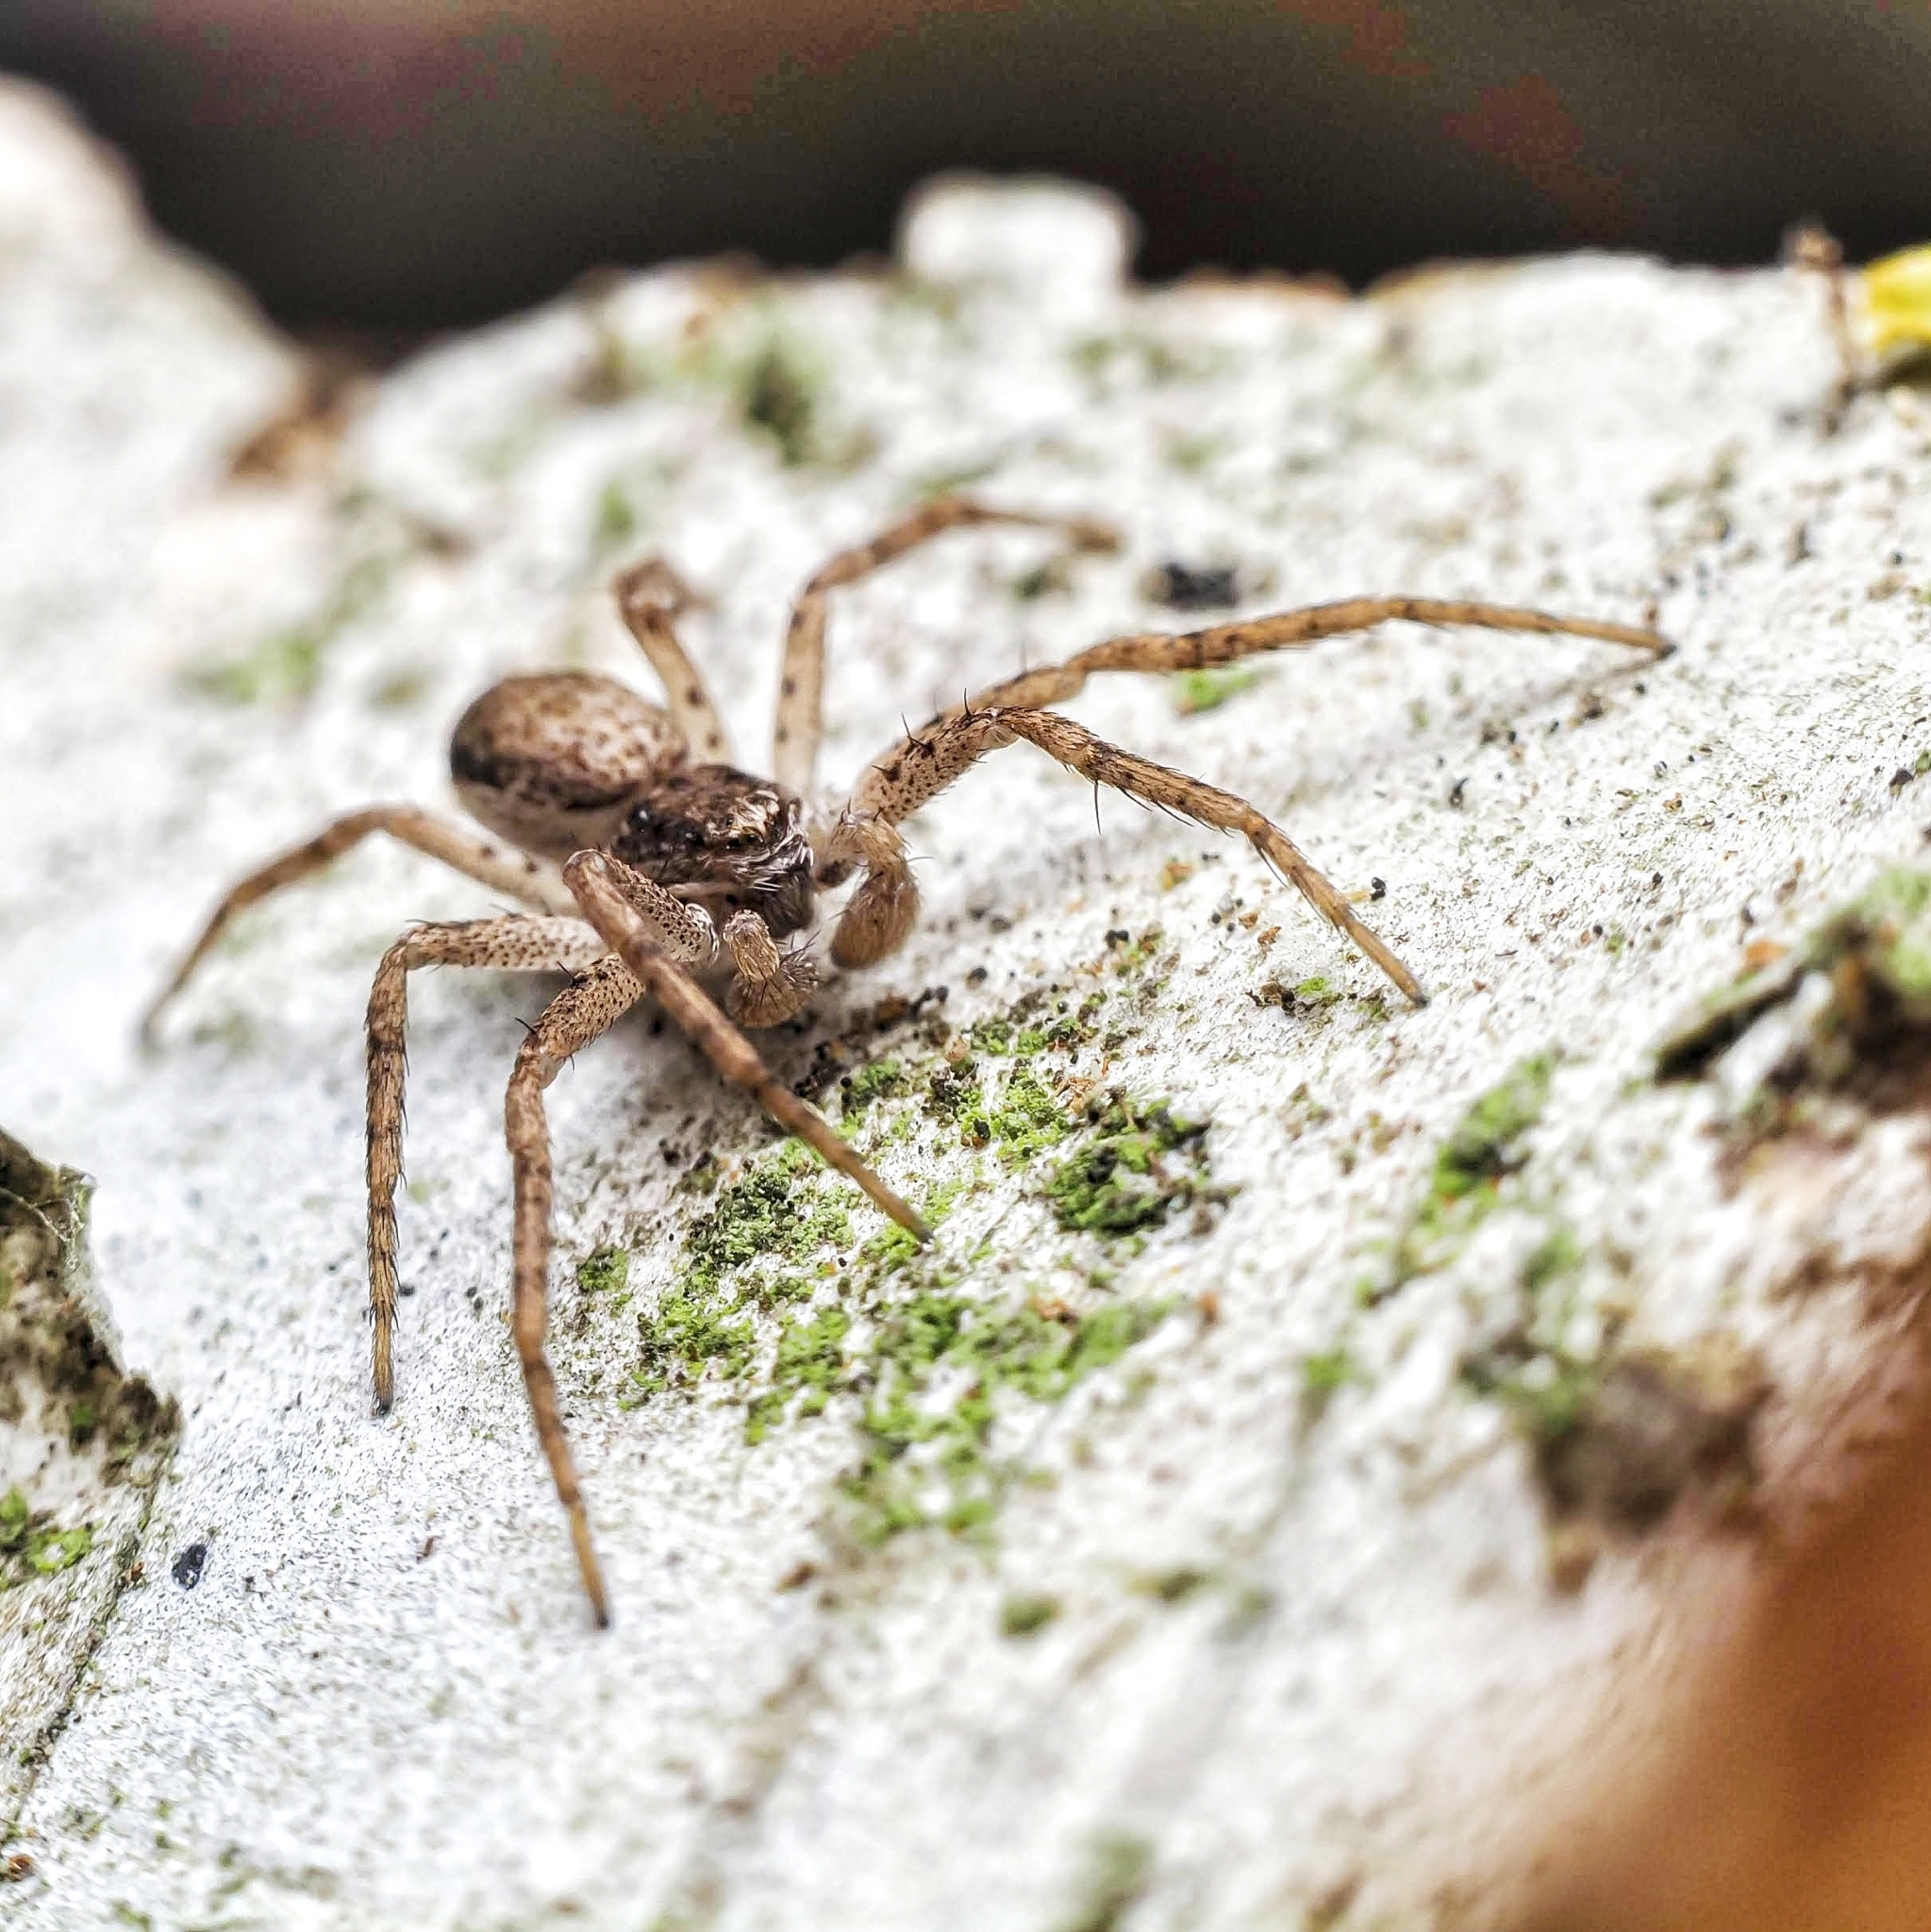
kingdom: Animalia
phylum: Arthropoda
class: Arachnida
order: Araneae
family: Philodromidae
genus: Philodromus
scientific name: Philodromus dispar
